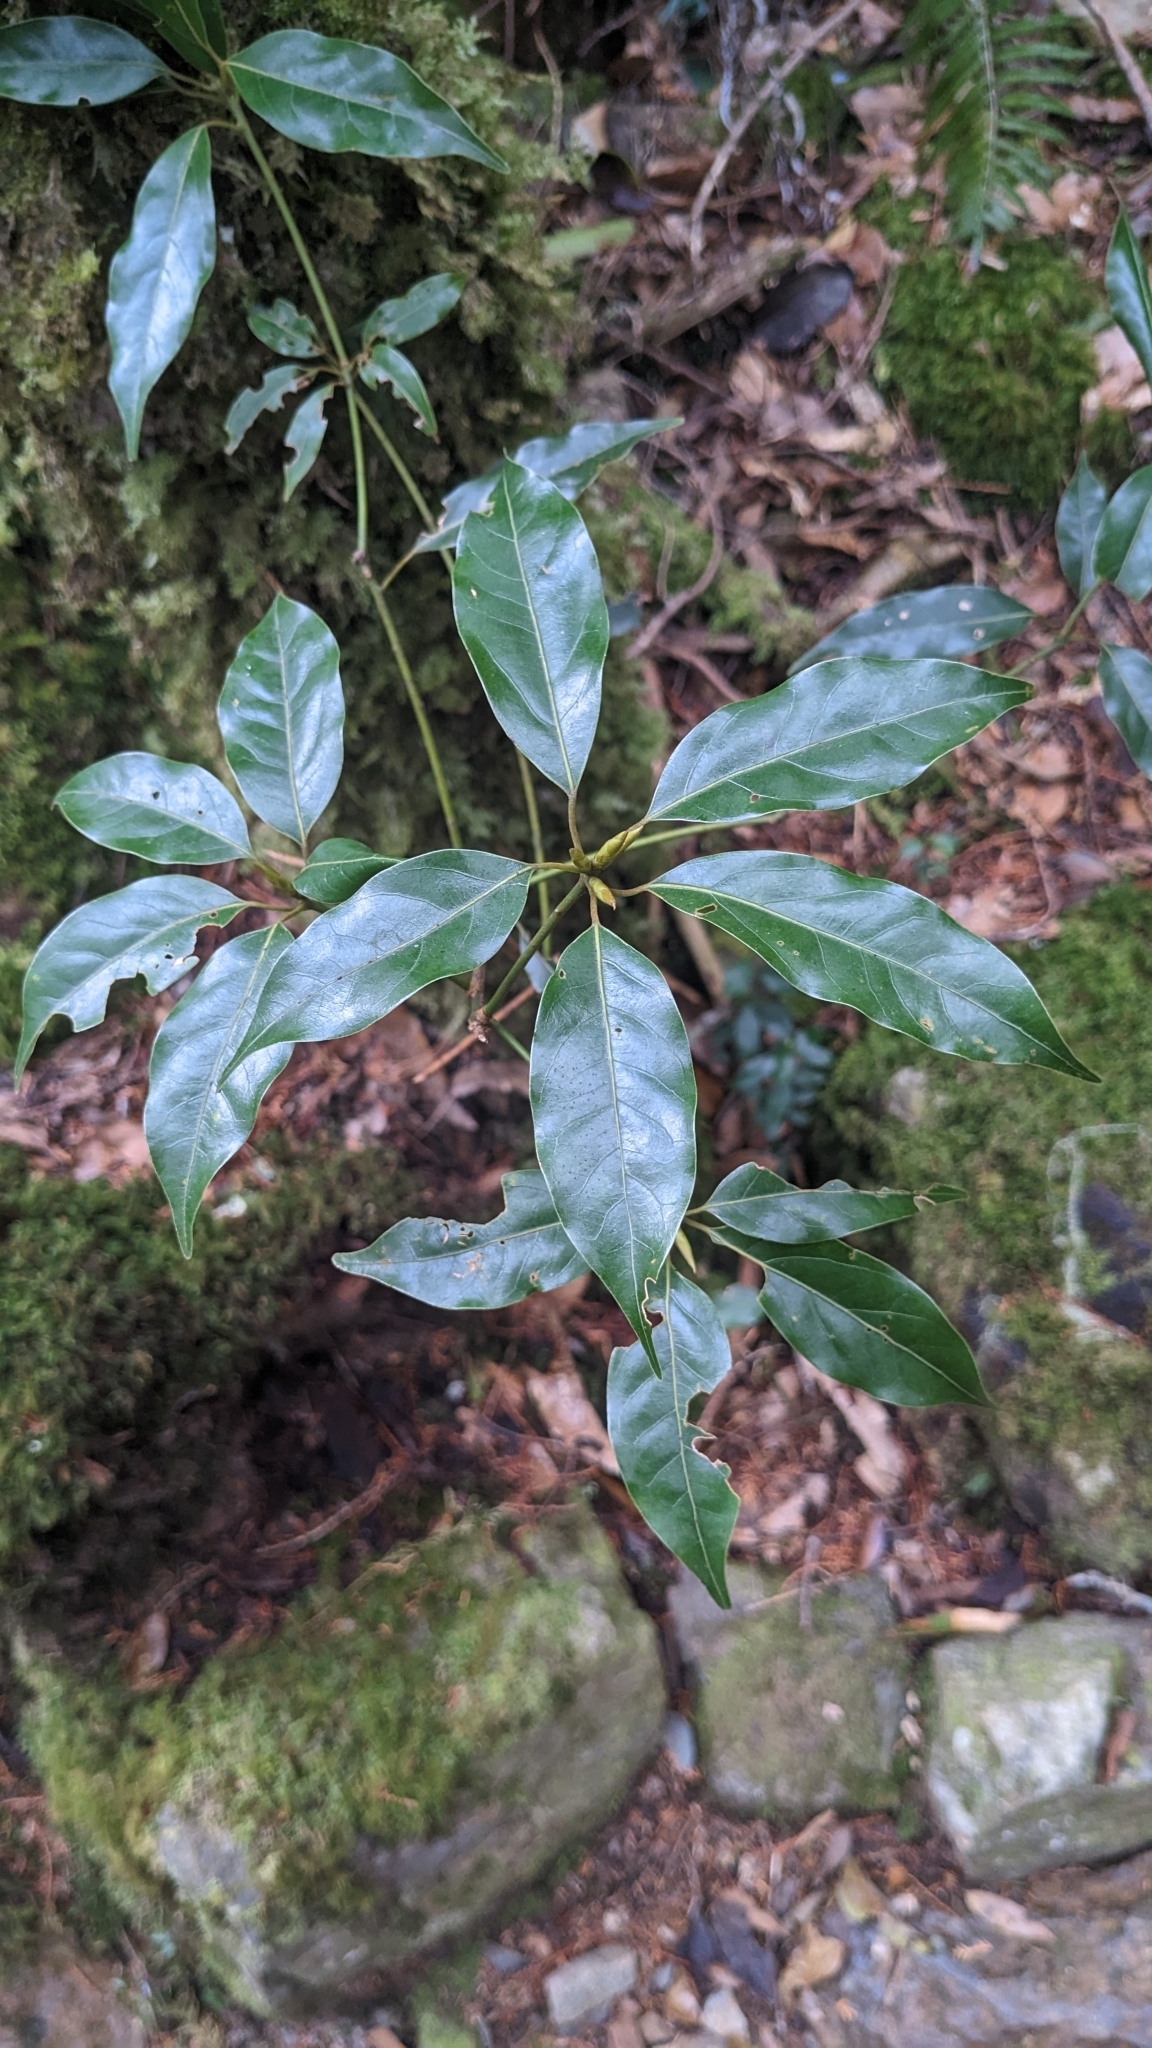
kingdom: Plantae
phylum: Tracheophyta
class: Magnoliopsida
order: Laurales
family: Lauraceae
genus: Neolitsea
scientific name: Neolitsea acuminatissima
